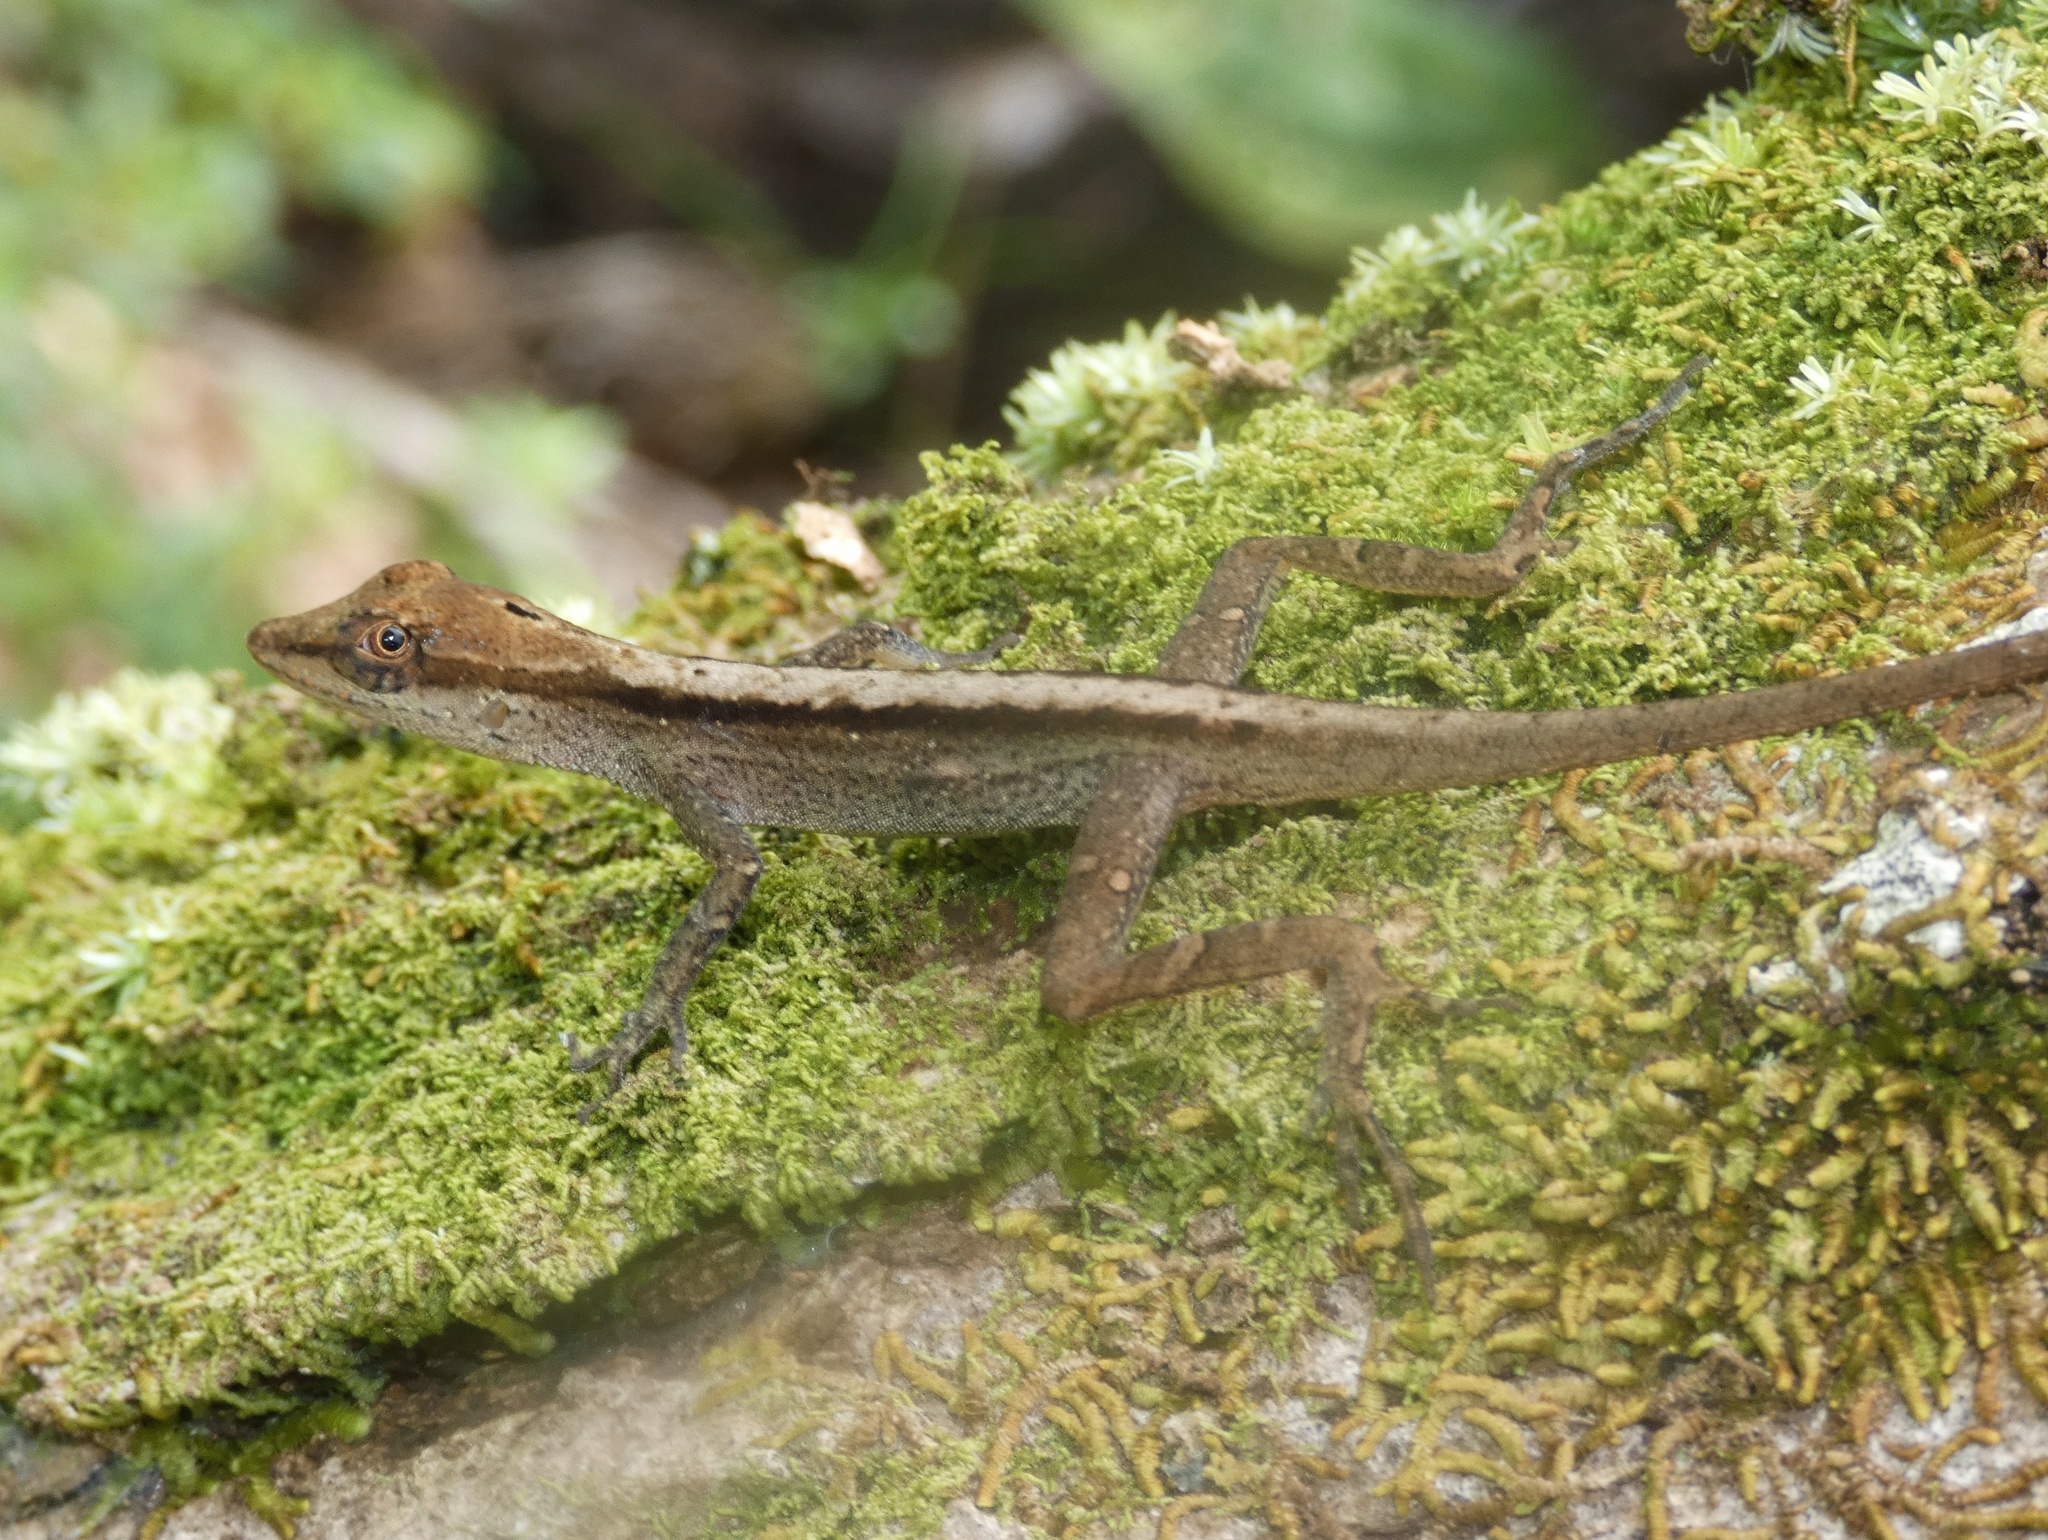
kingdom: Animalia
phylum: Chordata
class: Squamata
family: Dactyloidae
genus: Anolis
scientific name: Anolis gaigei
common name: Gaige’s anole
